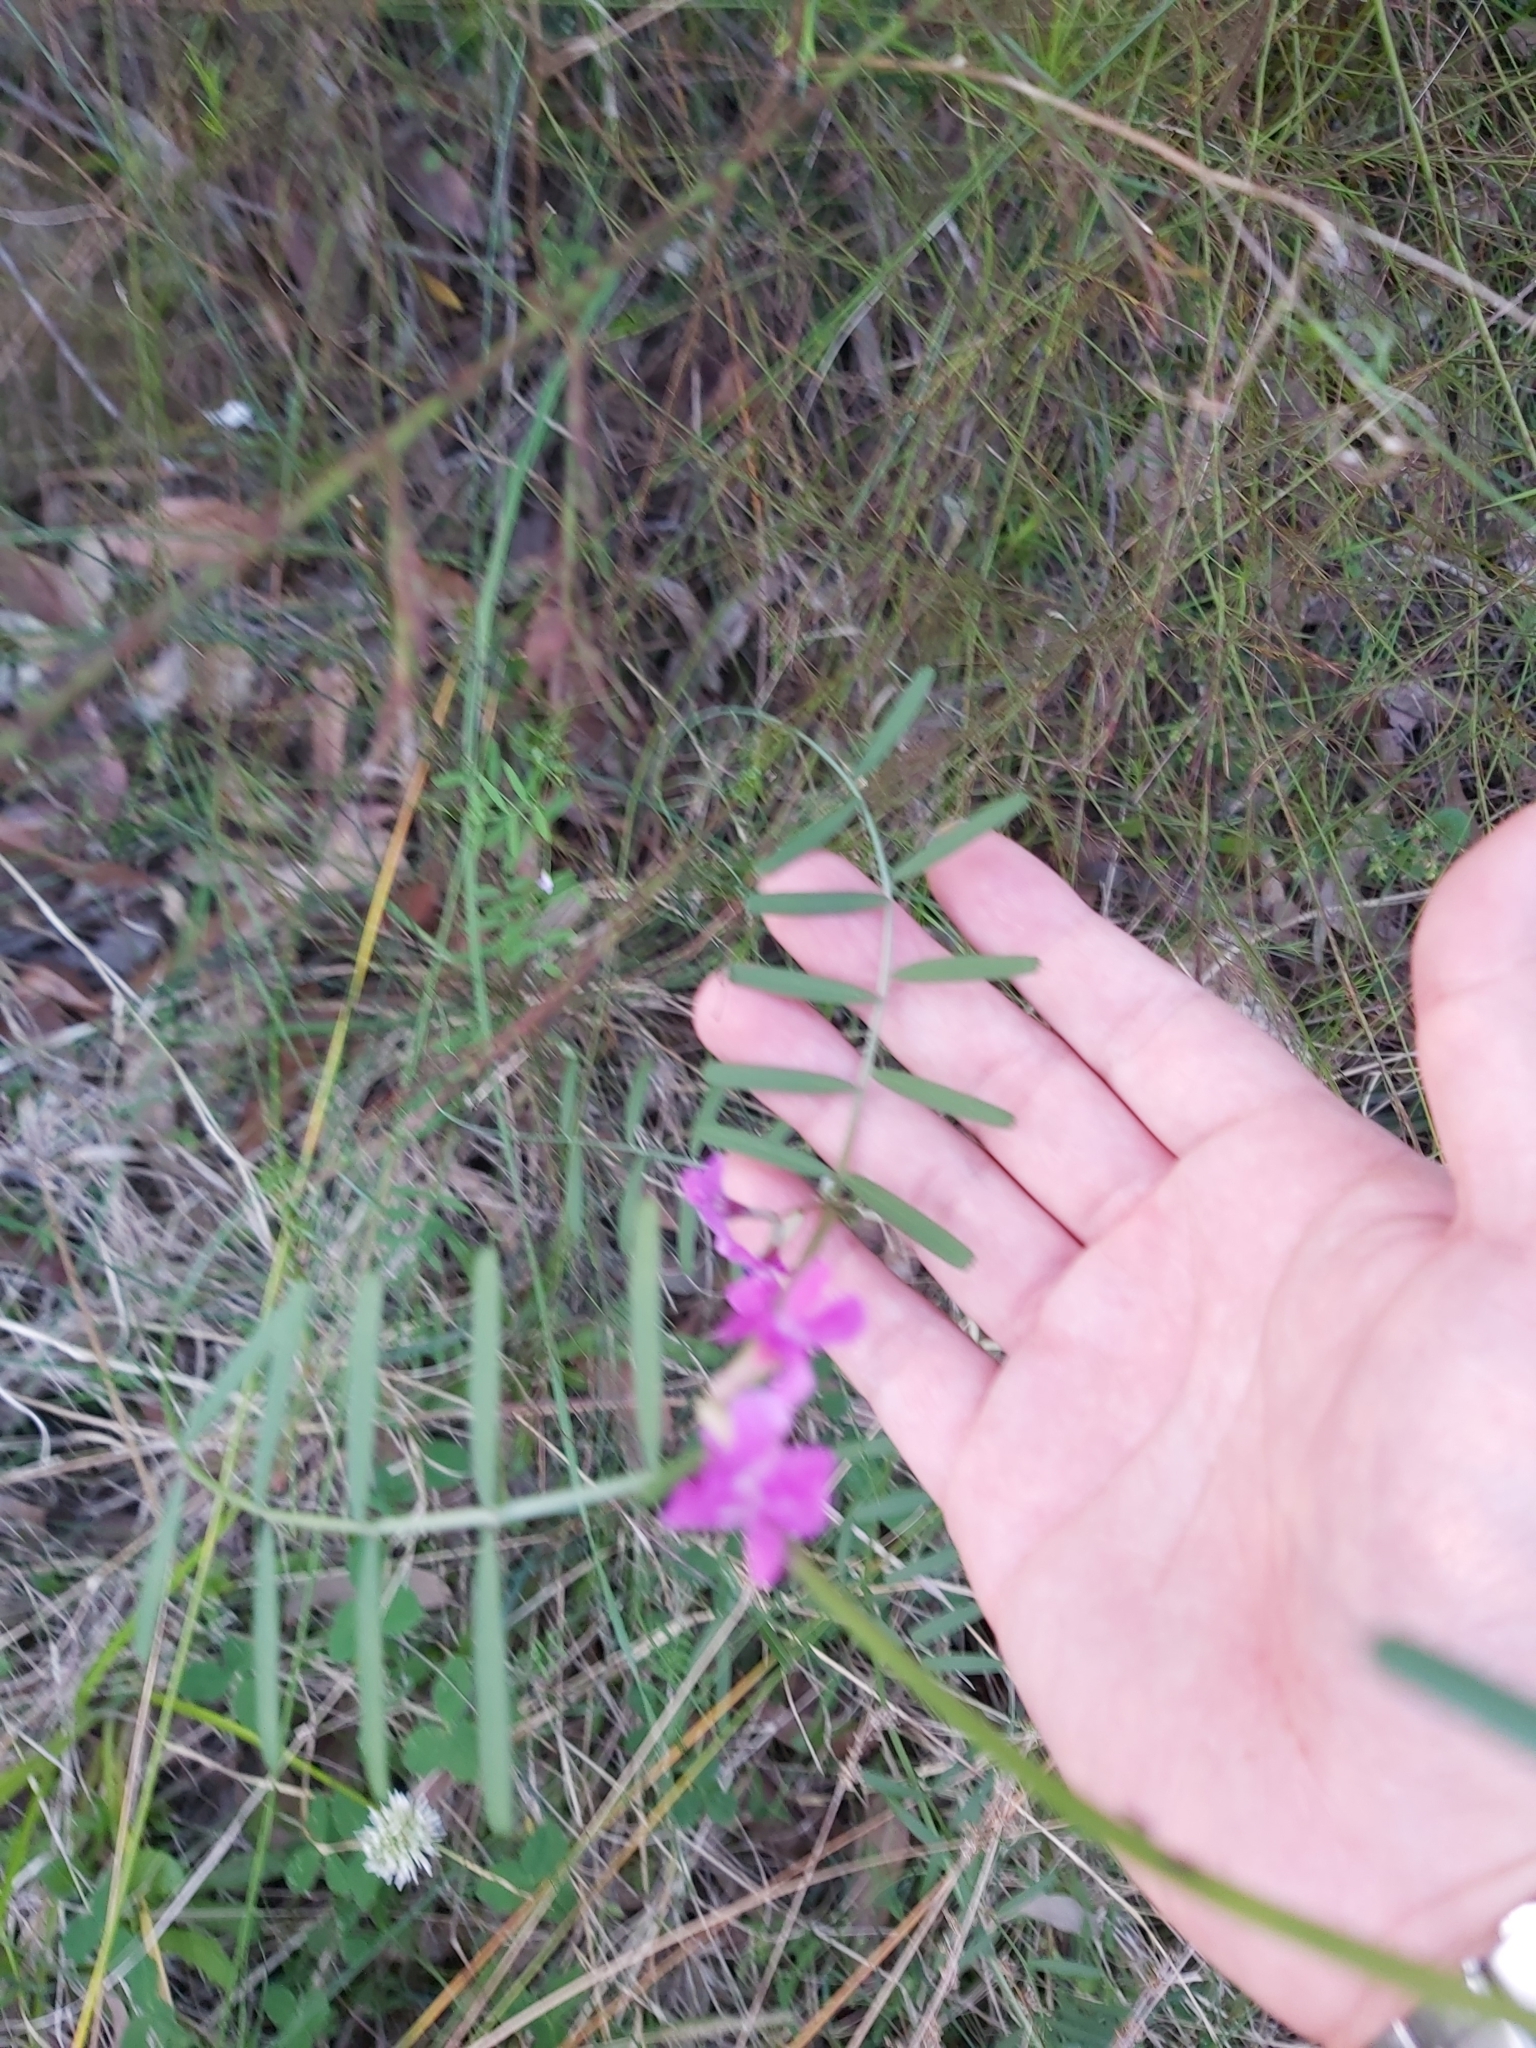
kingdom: Plantae
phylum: Tracheophyta
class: Magnoliopsida
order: Fabales
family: Fabaceae
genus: Vicia
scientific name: Vicia sativa
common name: Garden vetch
